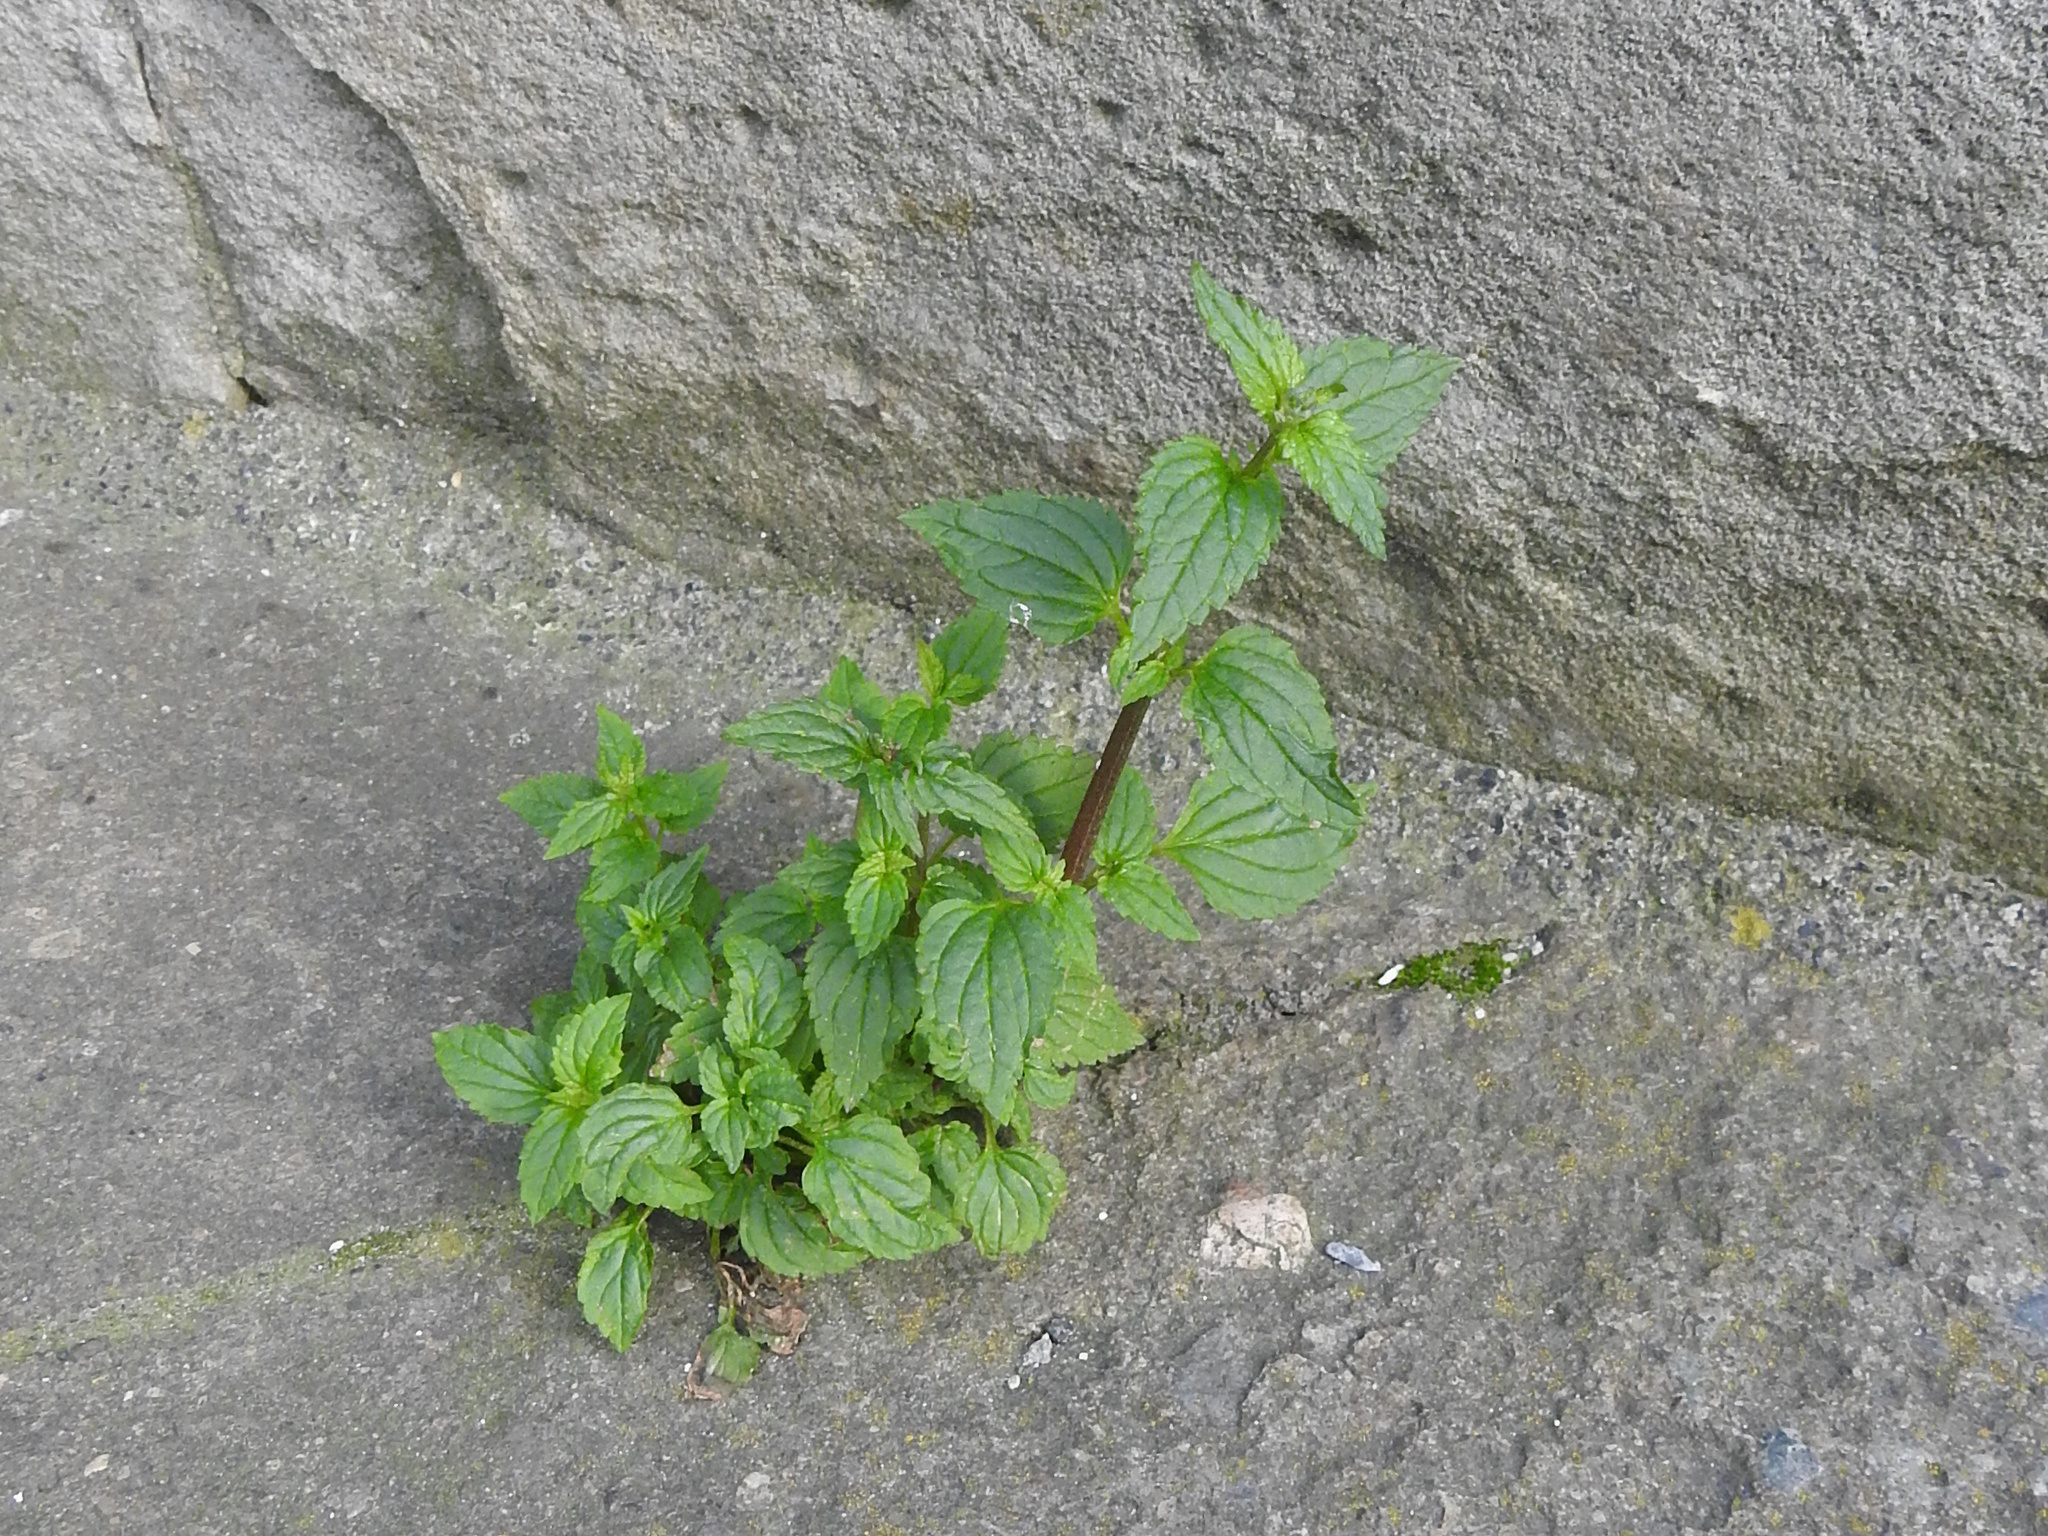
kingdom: Plantae
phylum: Tracheophyta
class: Magnoliopsida
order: Lamiales
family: Scrophulariaceae
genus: Nemesia
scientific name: Nemesia floribunda
